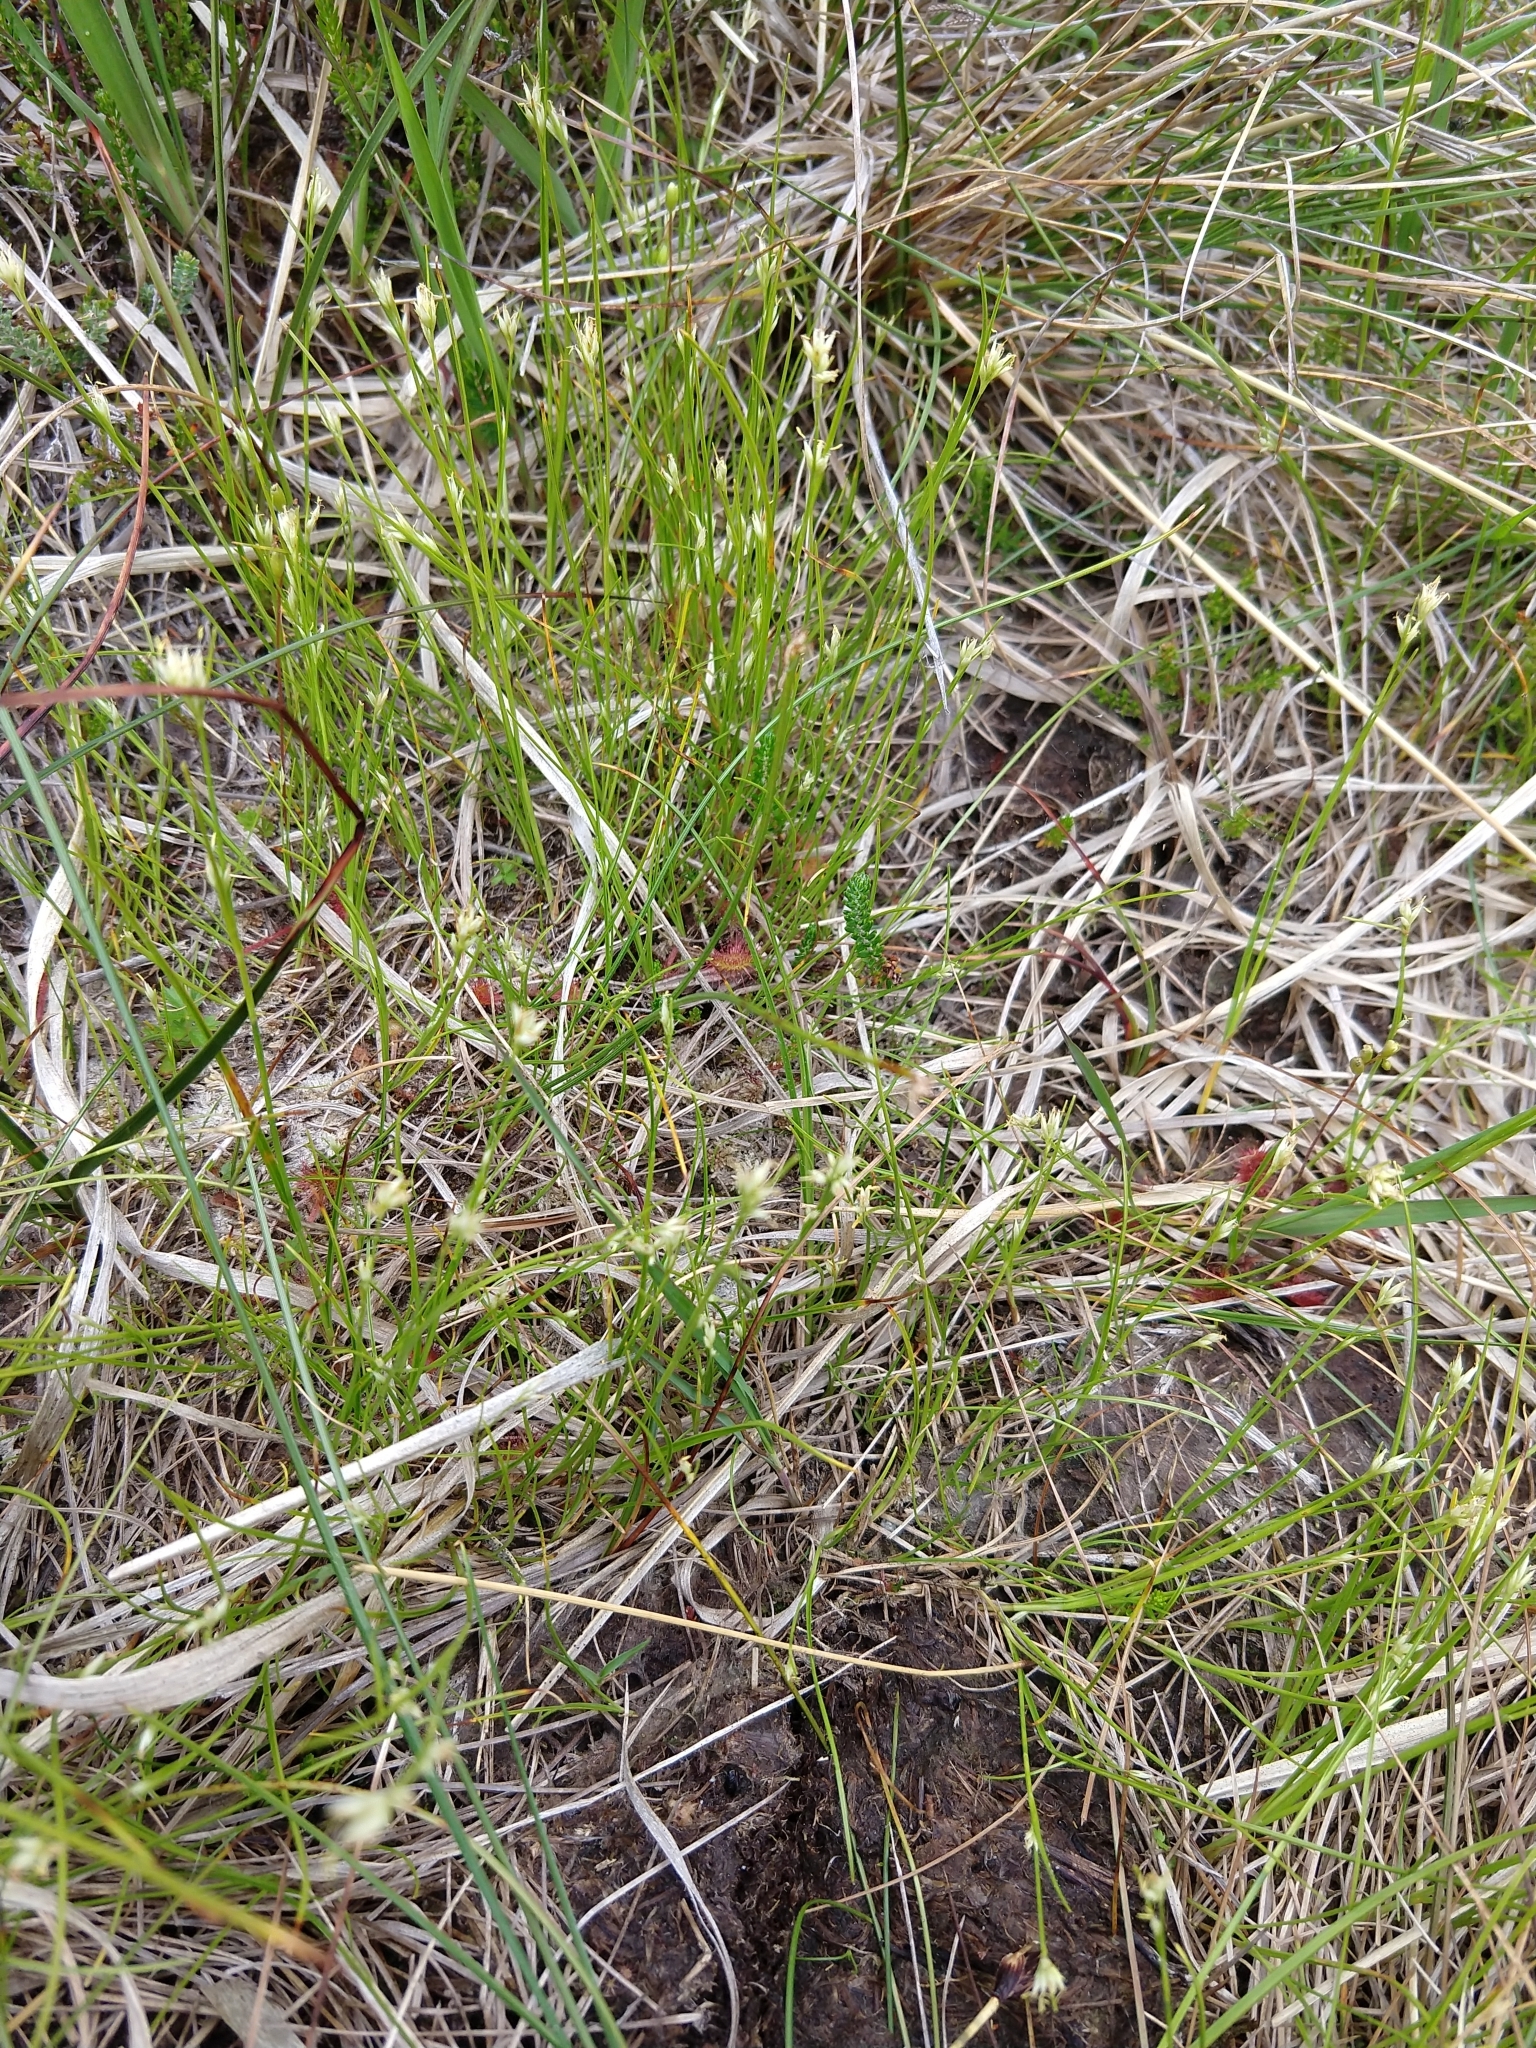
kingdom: Plantae
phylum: Tracheophyta
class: Liliopsida
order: Poales
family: Cyperaceae
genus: Rhynchospora
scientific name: Rhynchospora alba
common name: White beak-sedge
